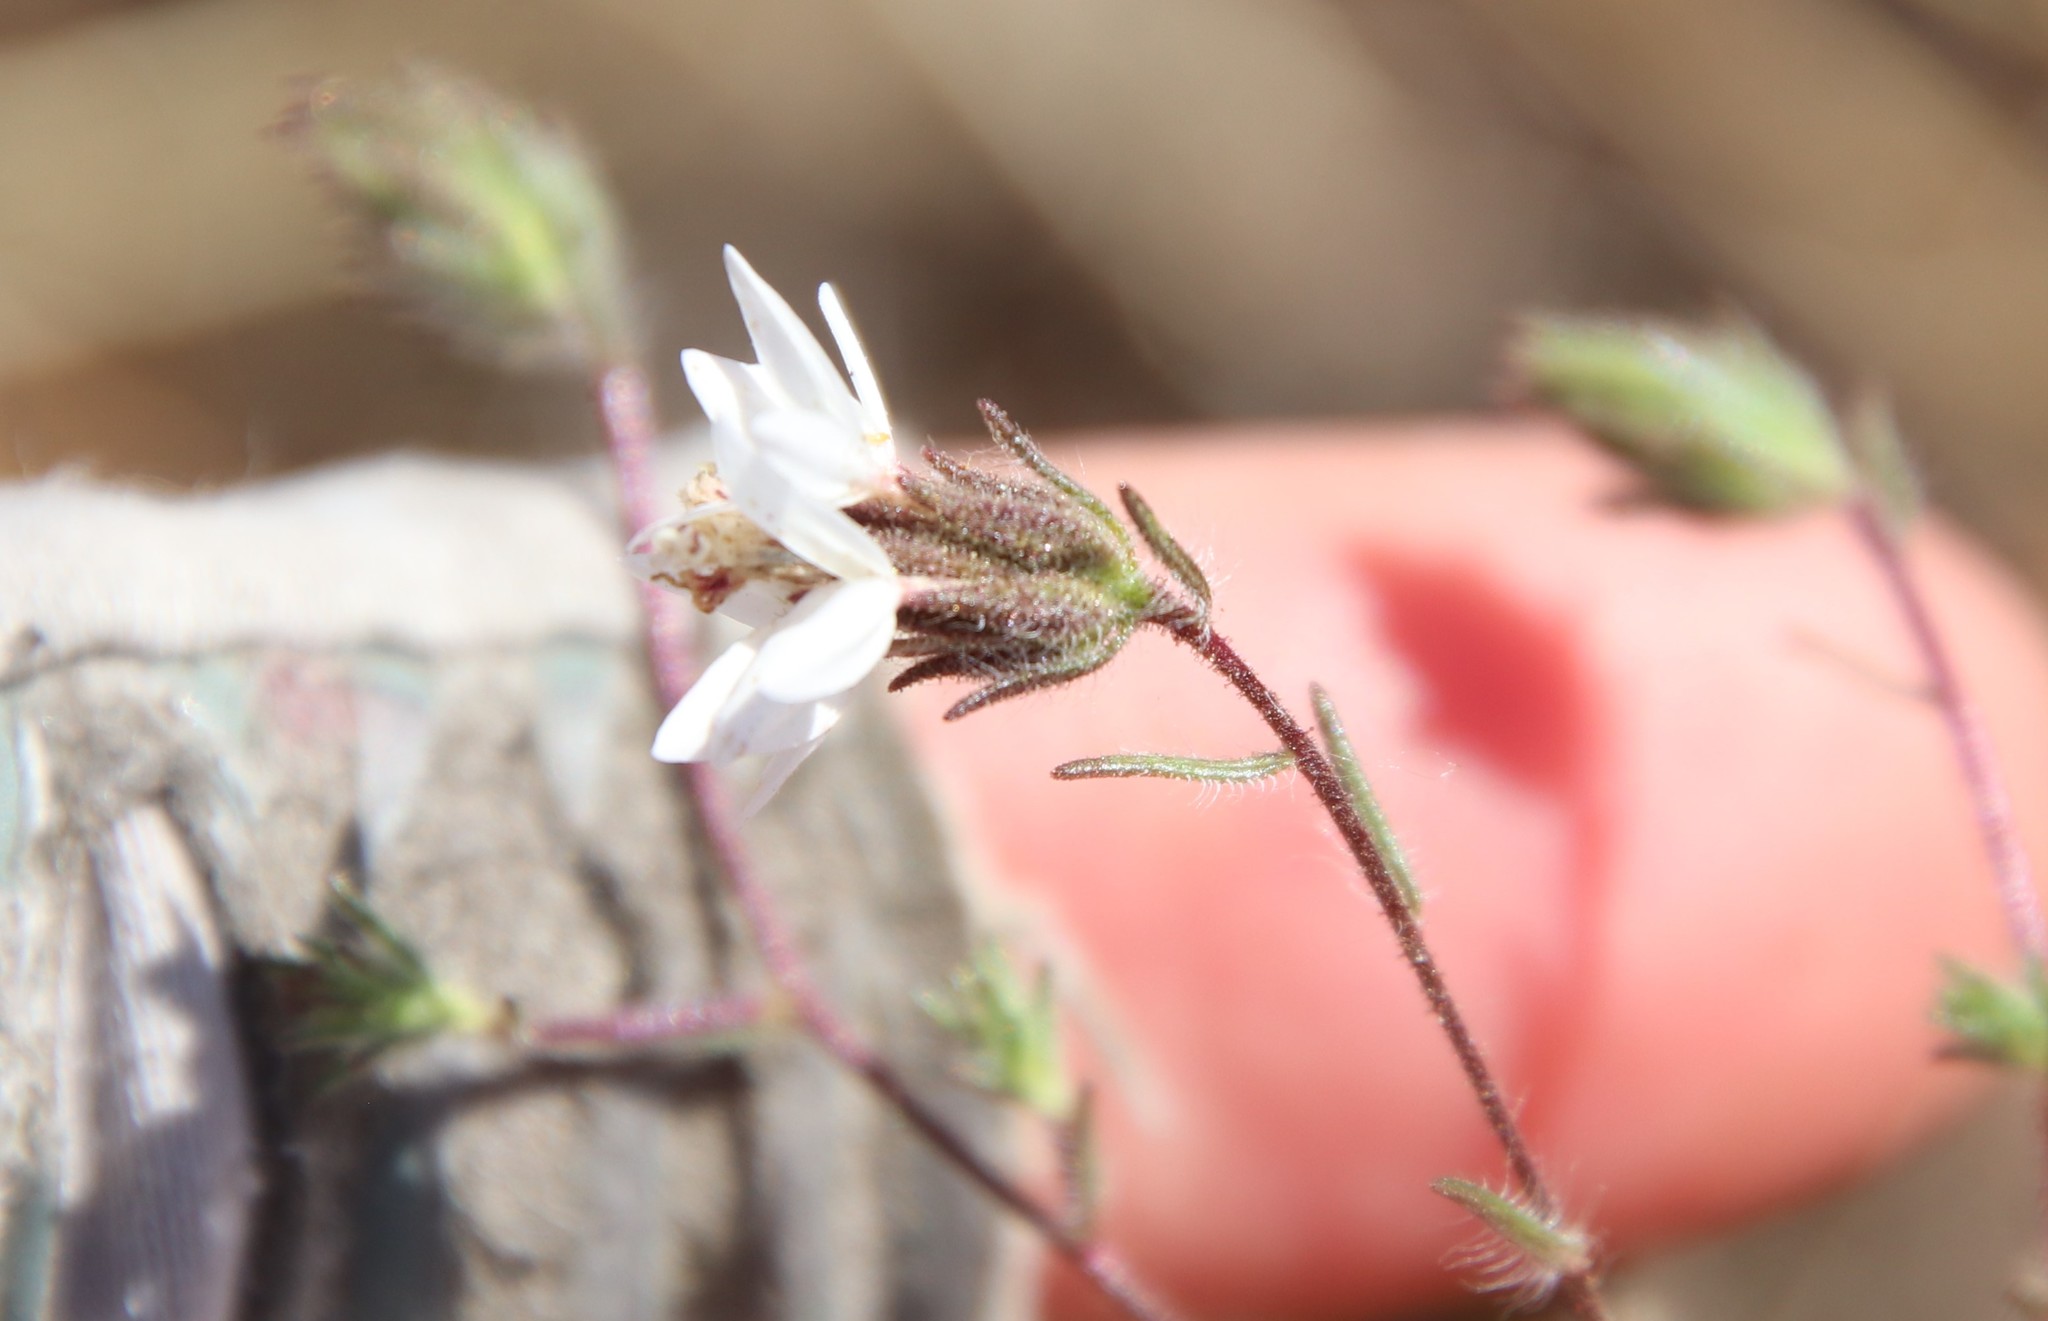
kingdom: Plantae
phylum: Tracheophyta
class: Magnoliopsida
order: Asterales
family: Asteraceae
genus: Osmadenia
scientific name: Osmadenia tenella
